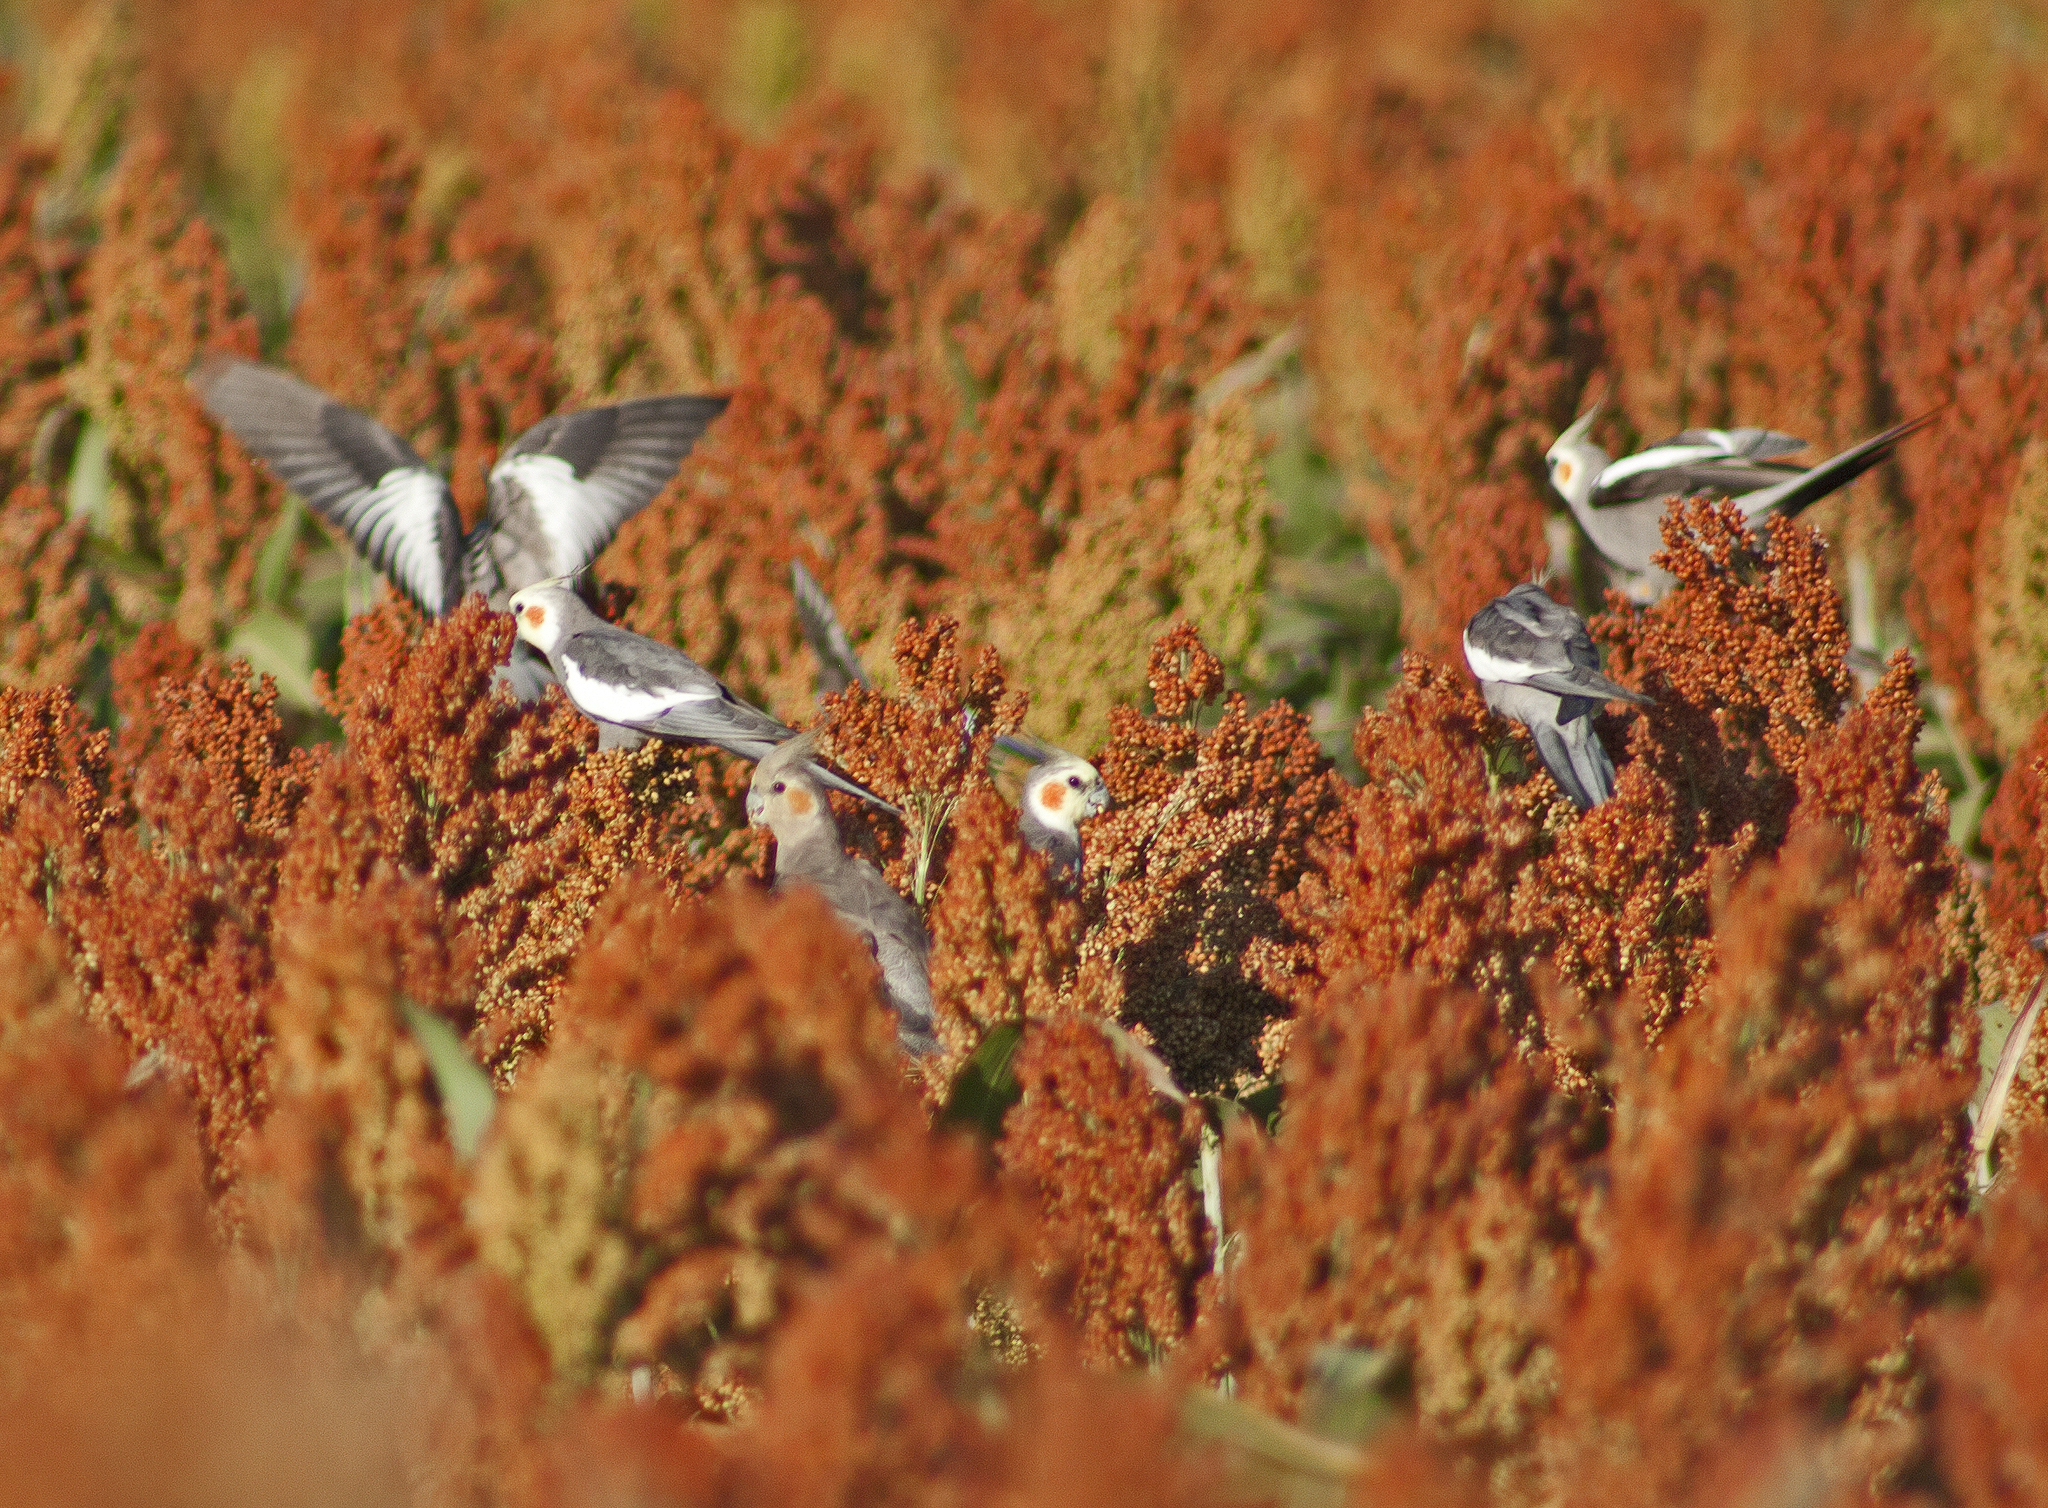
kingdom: Animalia
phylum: Chordata
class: Aves
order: Psittaciformes
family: Psittacidae
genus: Nymphicus
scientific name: Nymphicus hollandicus
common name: Cockatiel
